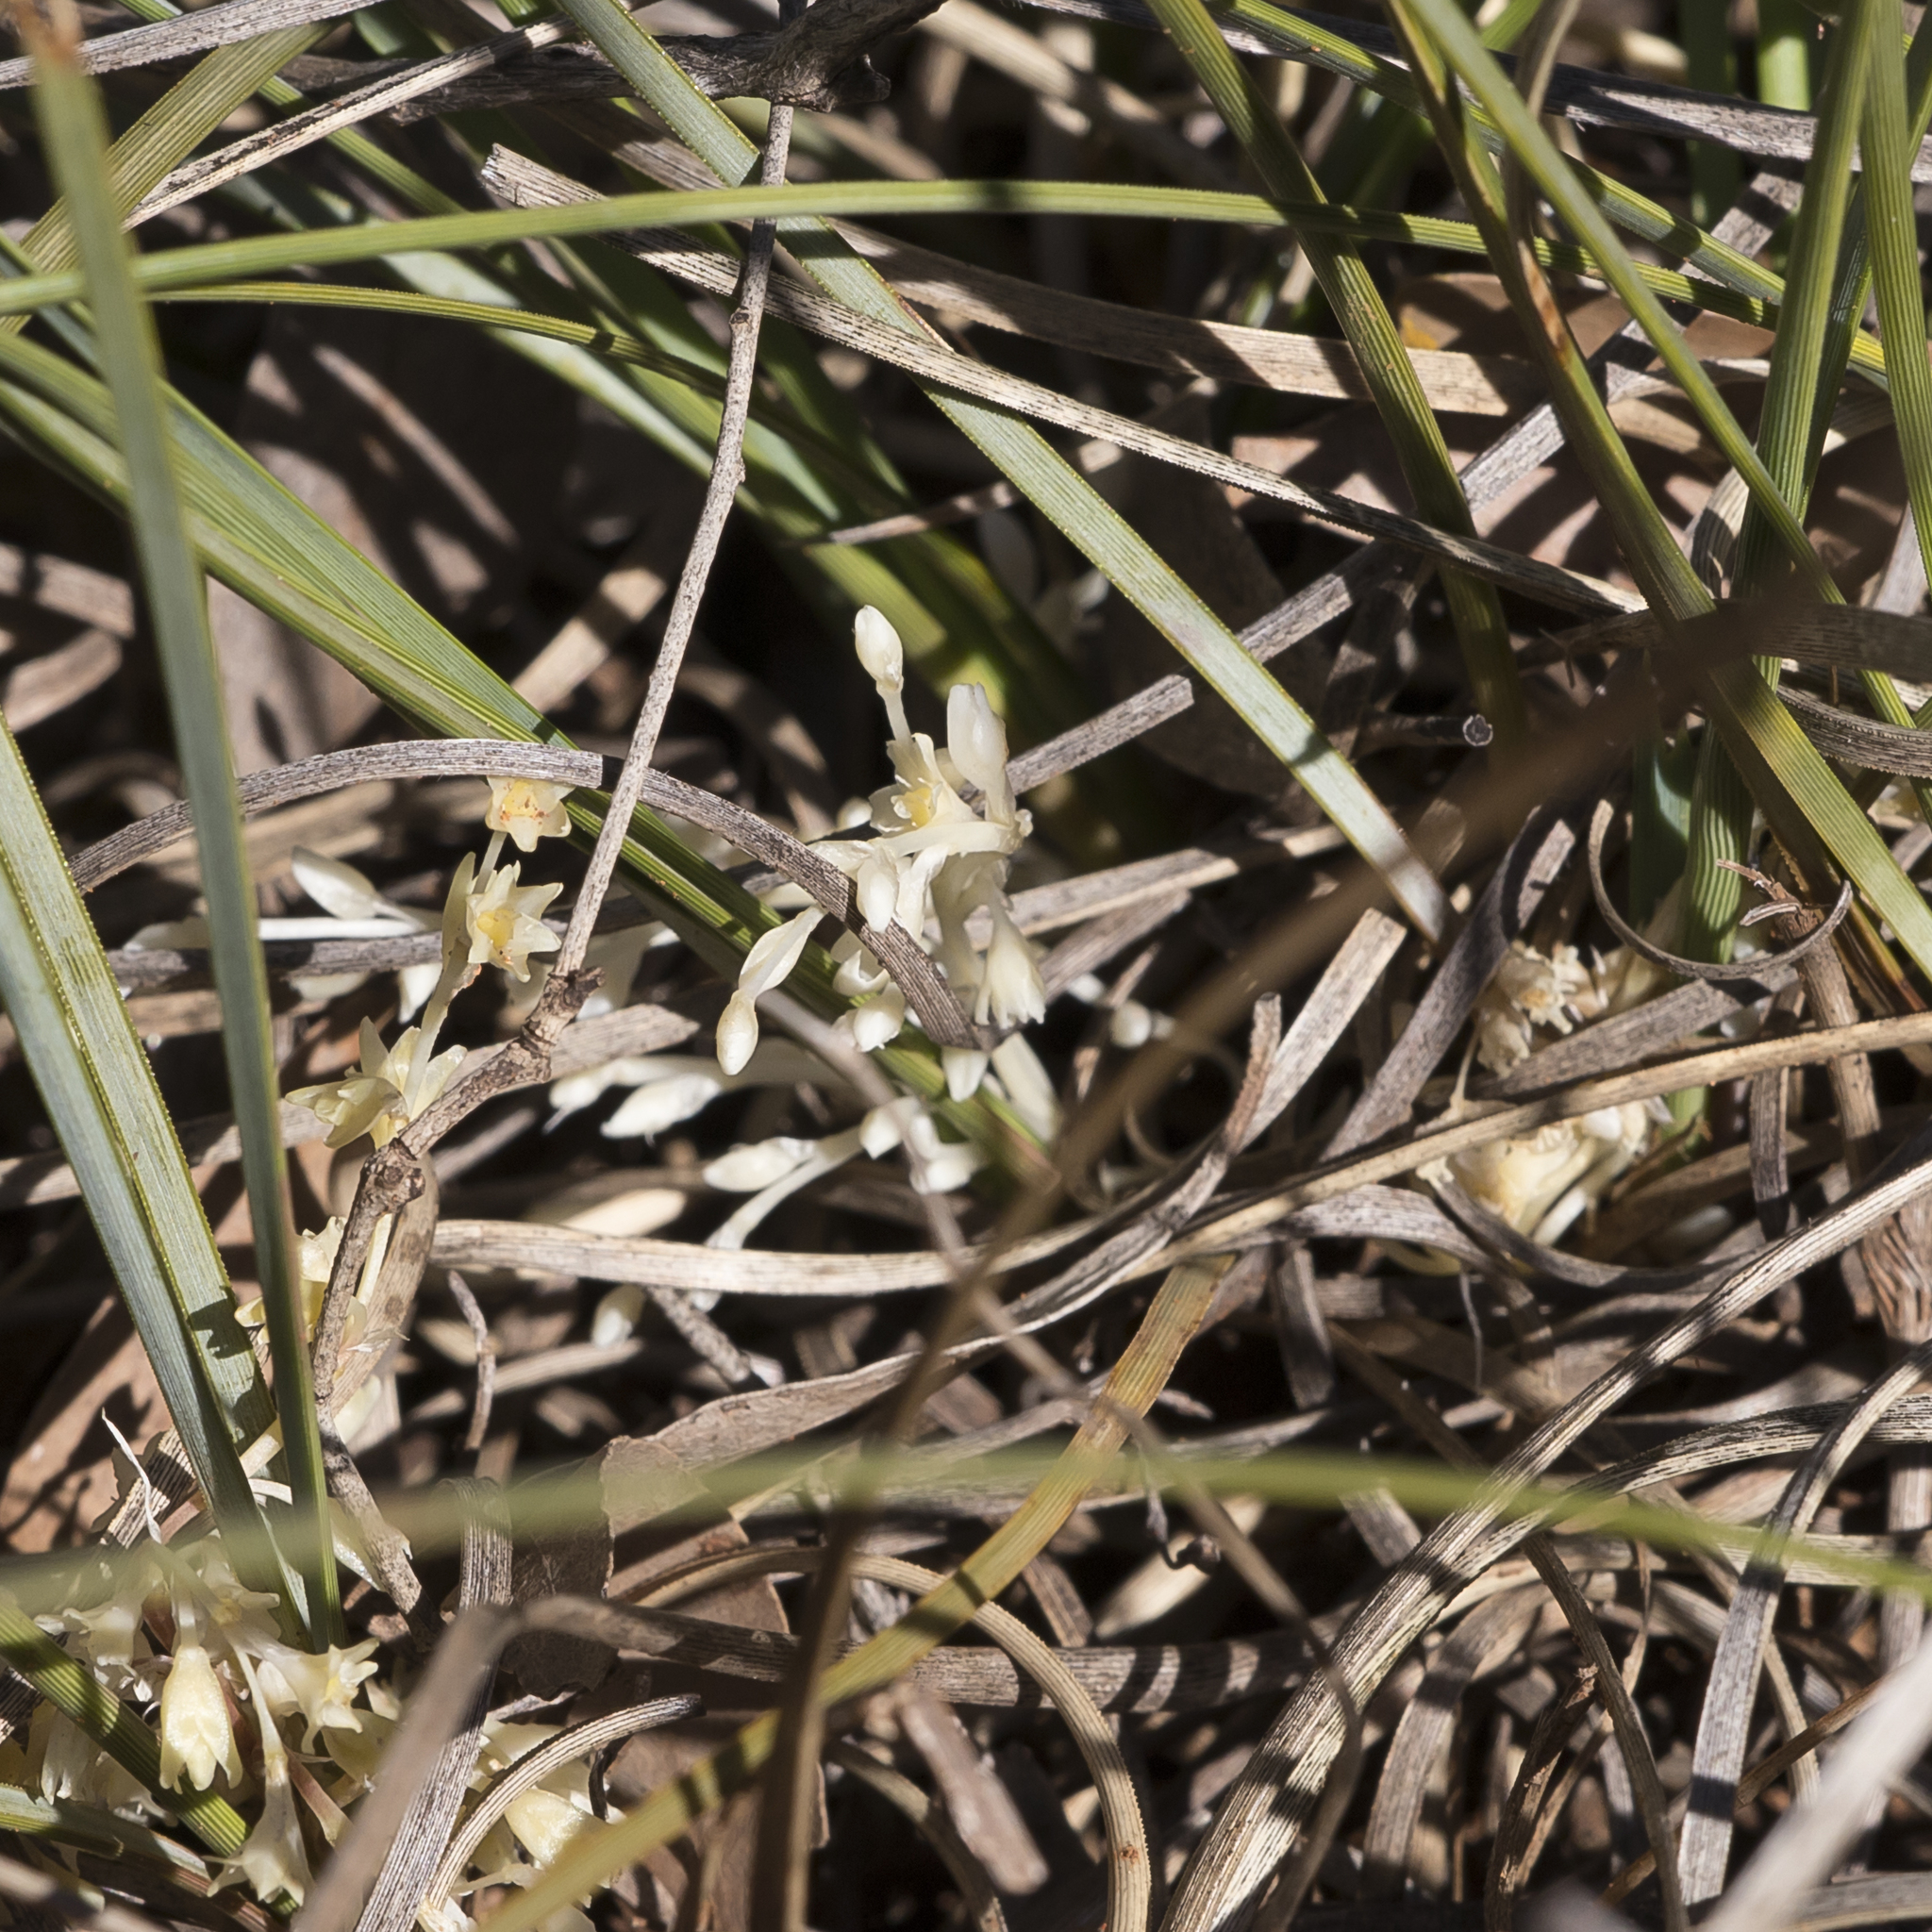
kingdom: Plantae
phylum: Tracheophyta
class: Liliopsida
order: Asparagales
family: Asparagaceae
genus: Lomandra
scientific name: Lomandra effusa
